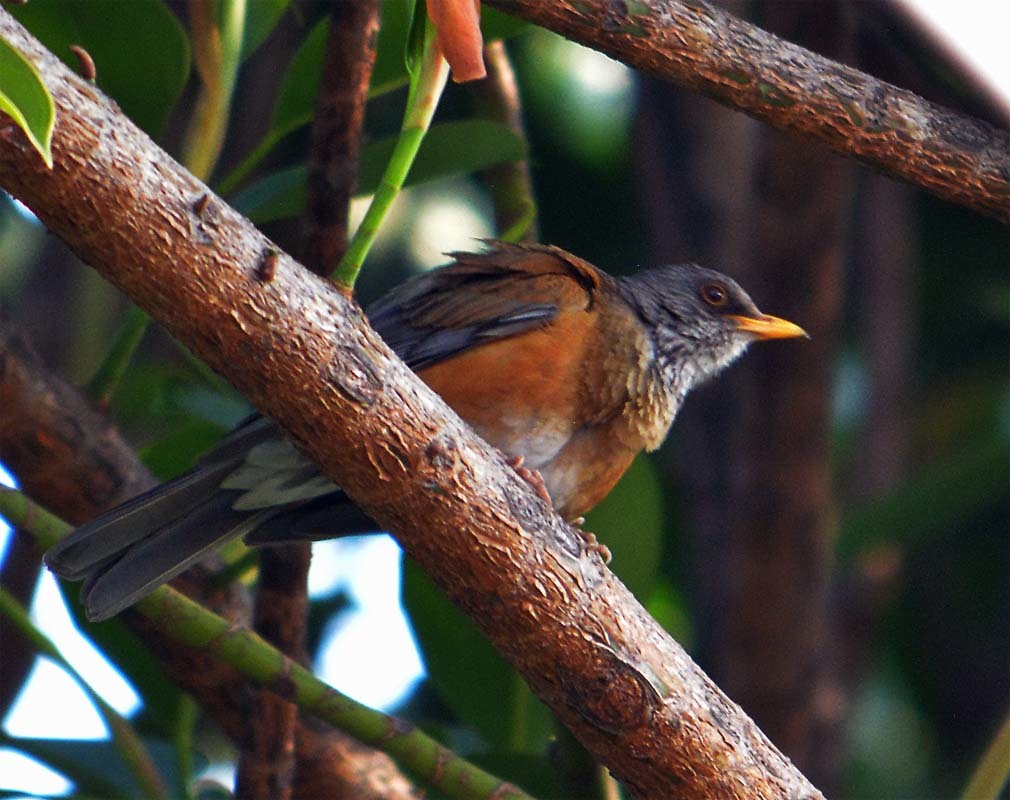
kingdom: Animalia
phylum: Chordata
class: Aves
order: Passeriformes
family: Turdidae
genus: Turdus
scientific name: Turdus rufopalliatus
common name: Rufous-backed robin
